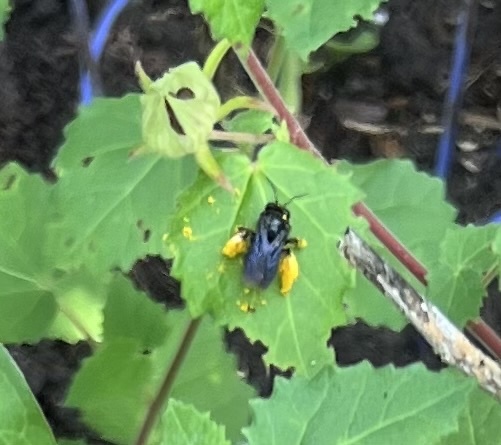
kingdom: Animalia
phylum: Arthropoda
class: Insecta
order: Hymenoptera
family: Apidae
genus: Melissodes
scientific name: Melissodes bimaculatus
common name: Two-spotted long-horned bee
